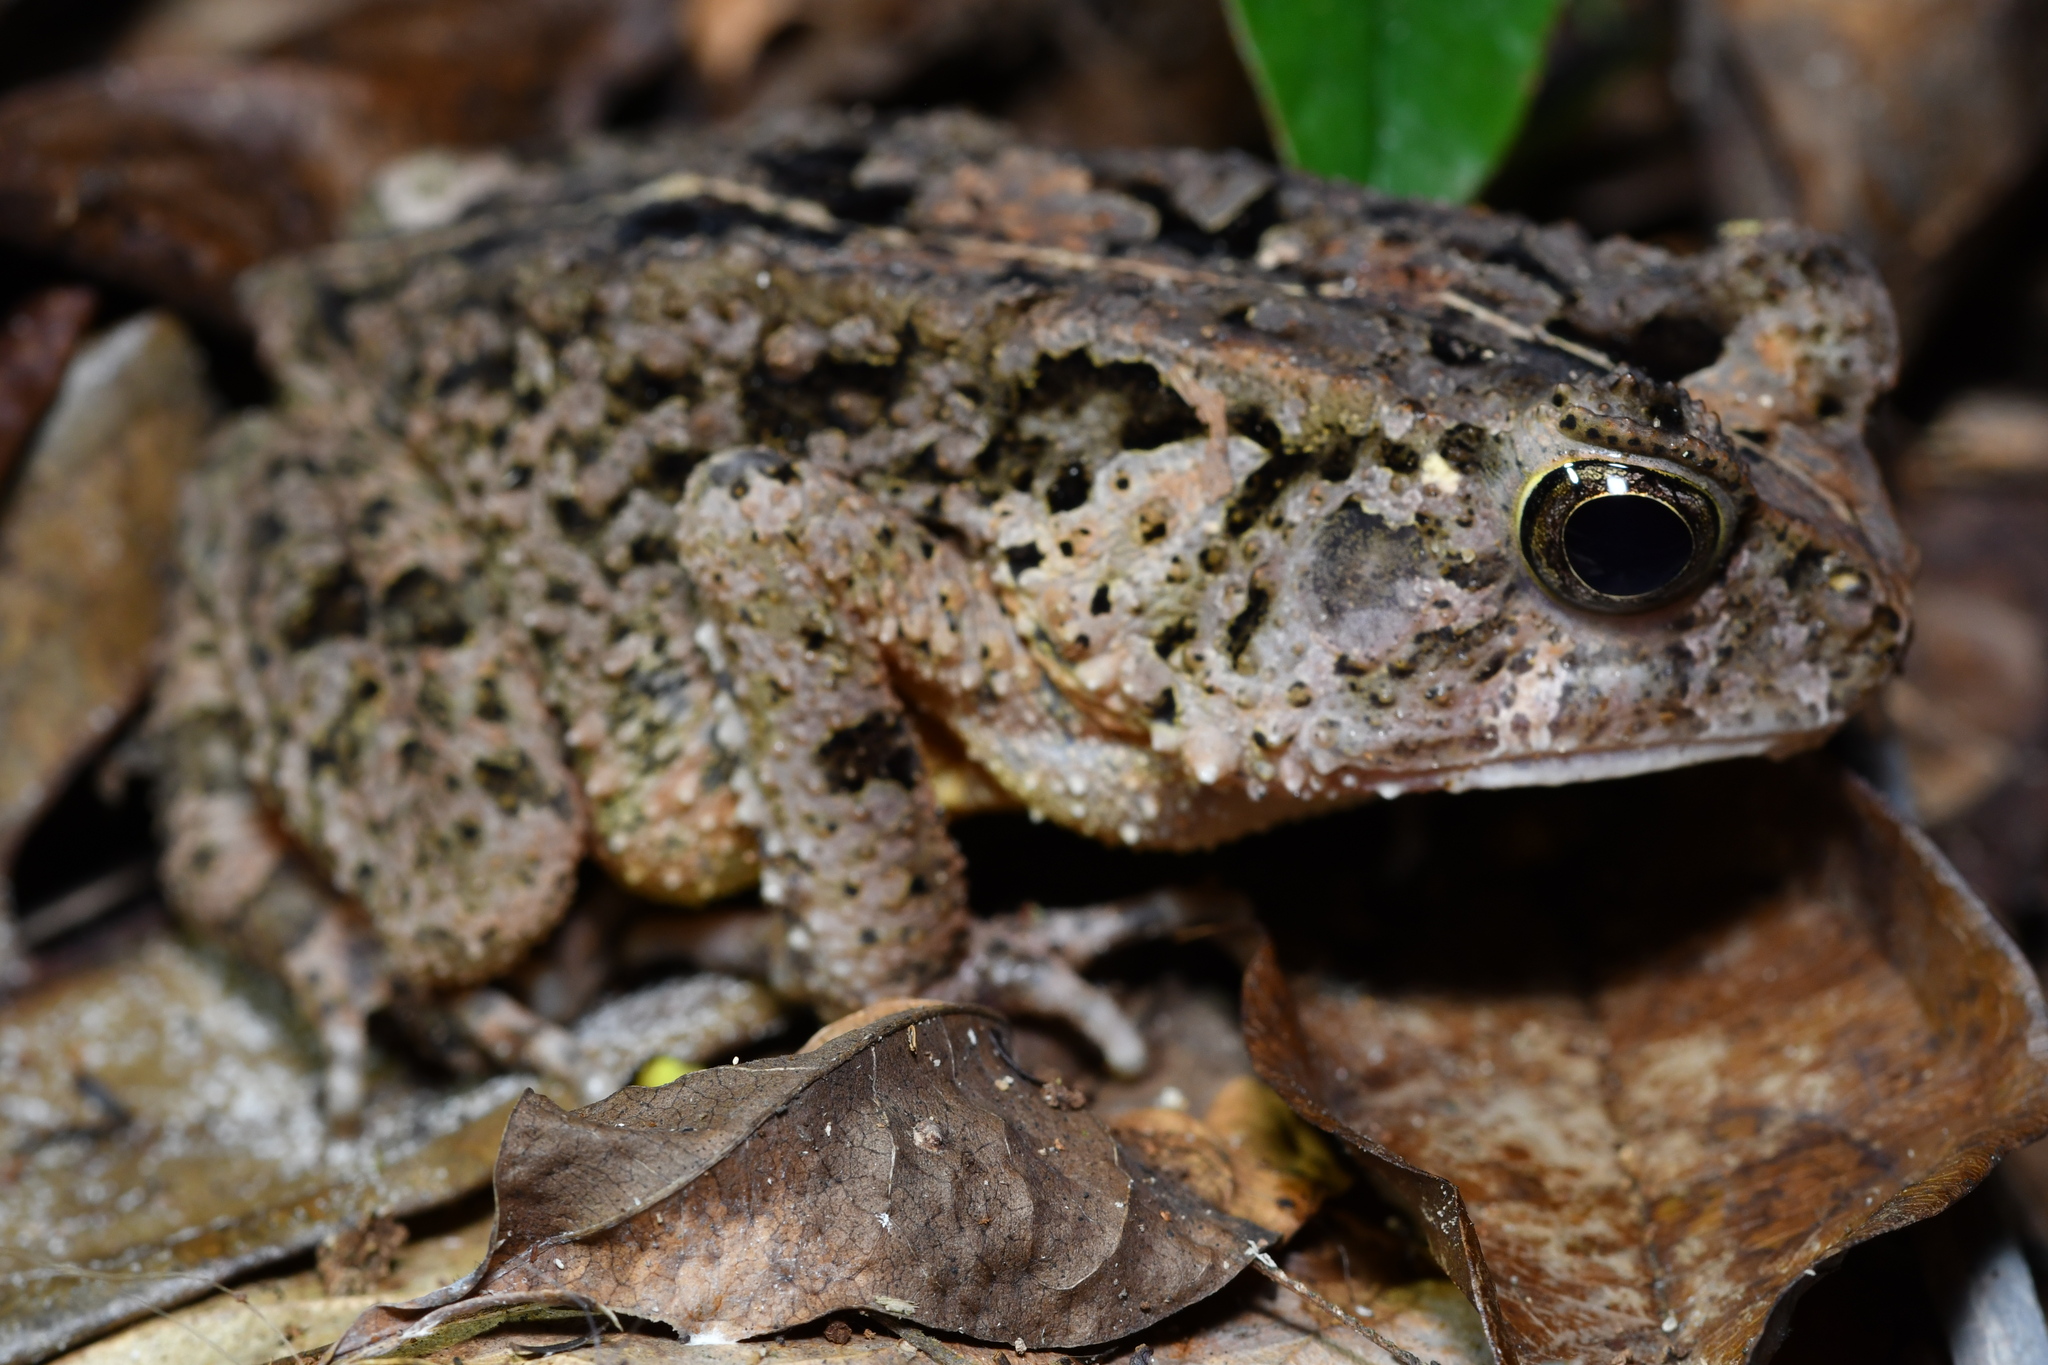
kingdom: Animalia
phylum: Chordata
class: Amphibia
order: Anura
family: Bufonidae
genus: Sclerophrys
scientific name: Sclerophrys togoensis
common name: Togo toad
